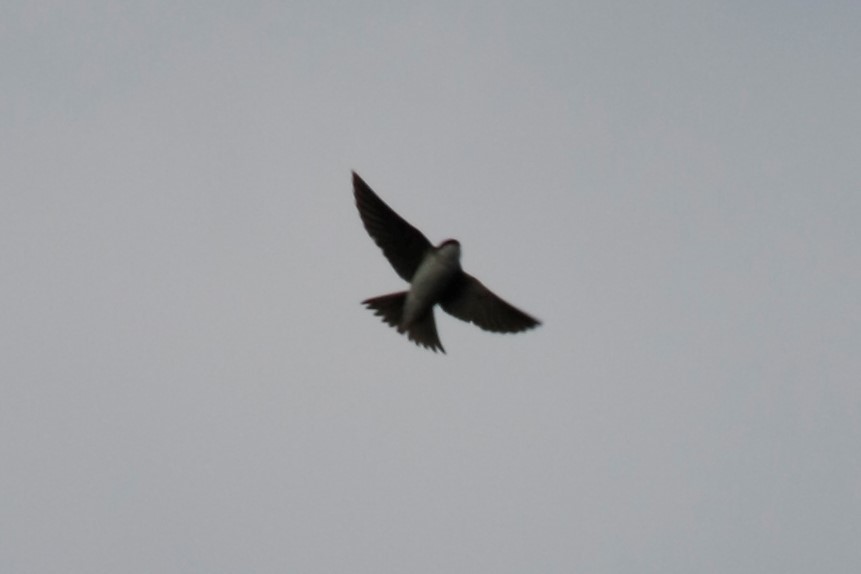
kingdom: Animalia
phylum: Chordata
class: Aves
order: Passeriformes
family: Hirundinidae
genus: Delichon
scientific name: Delichon urbicum
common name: Common house martin
